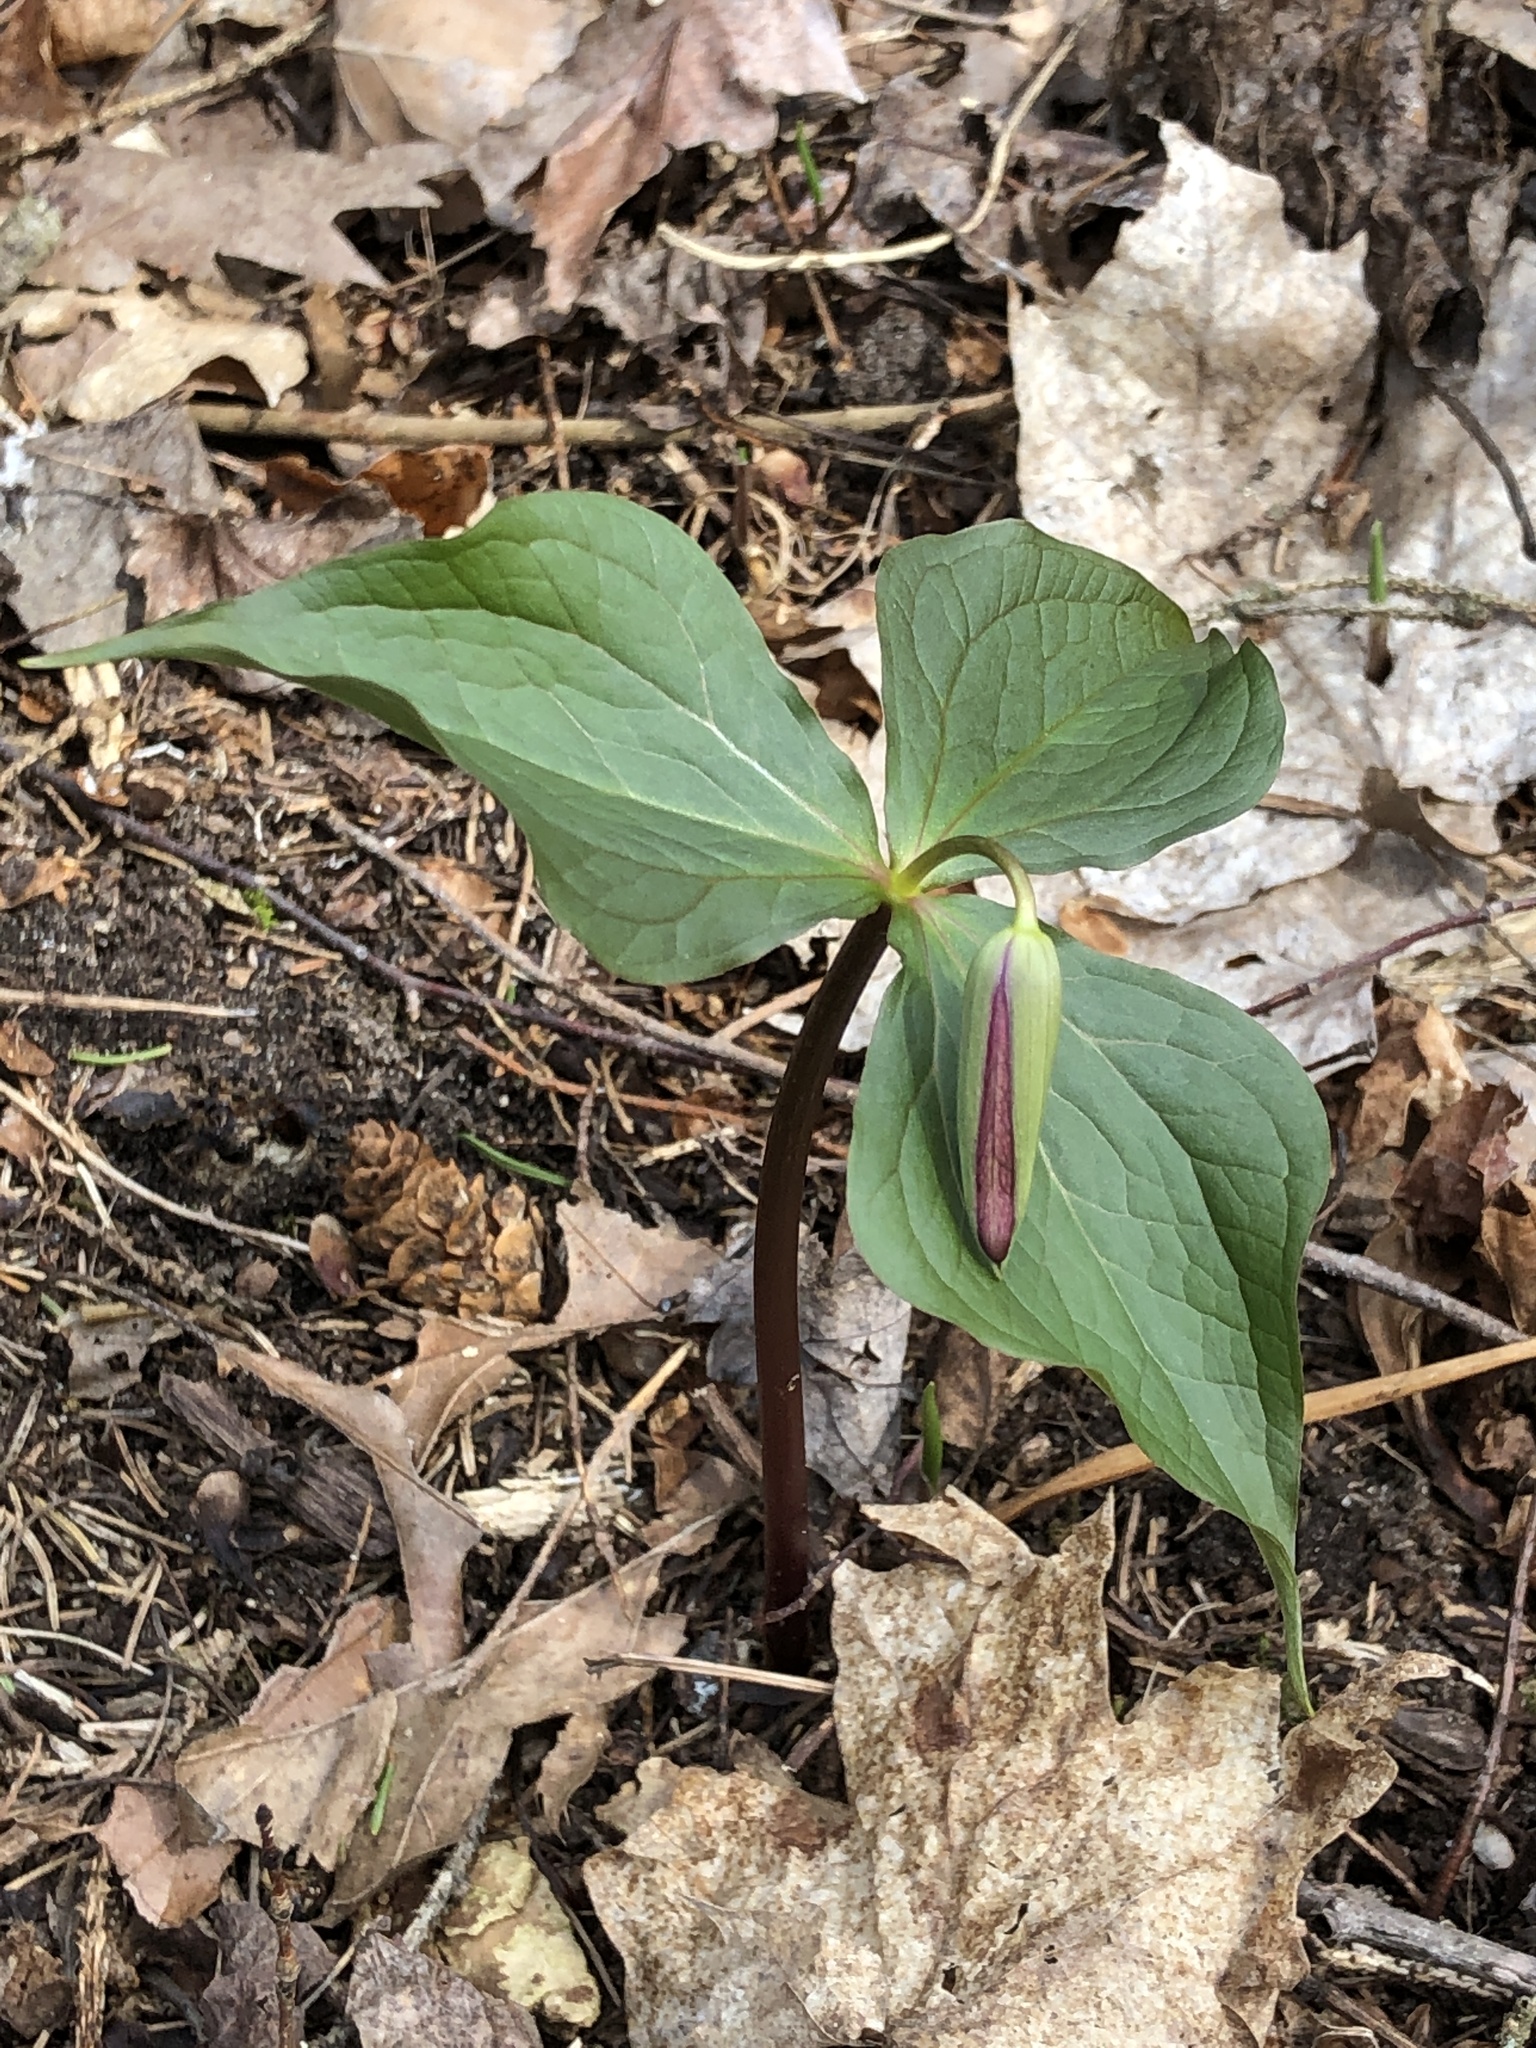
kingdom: Plantae
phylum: Tracheophyta
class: Liliopsida
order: Liliales
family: Melanthiaceae
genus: Trillium
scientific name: Trillium erectum
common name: Purple trillium
